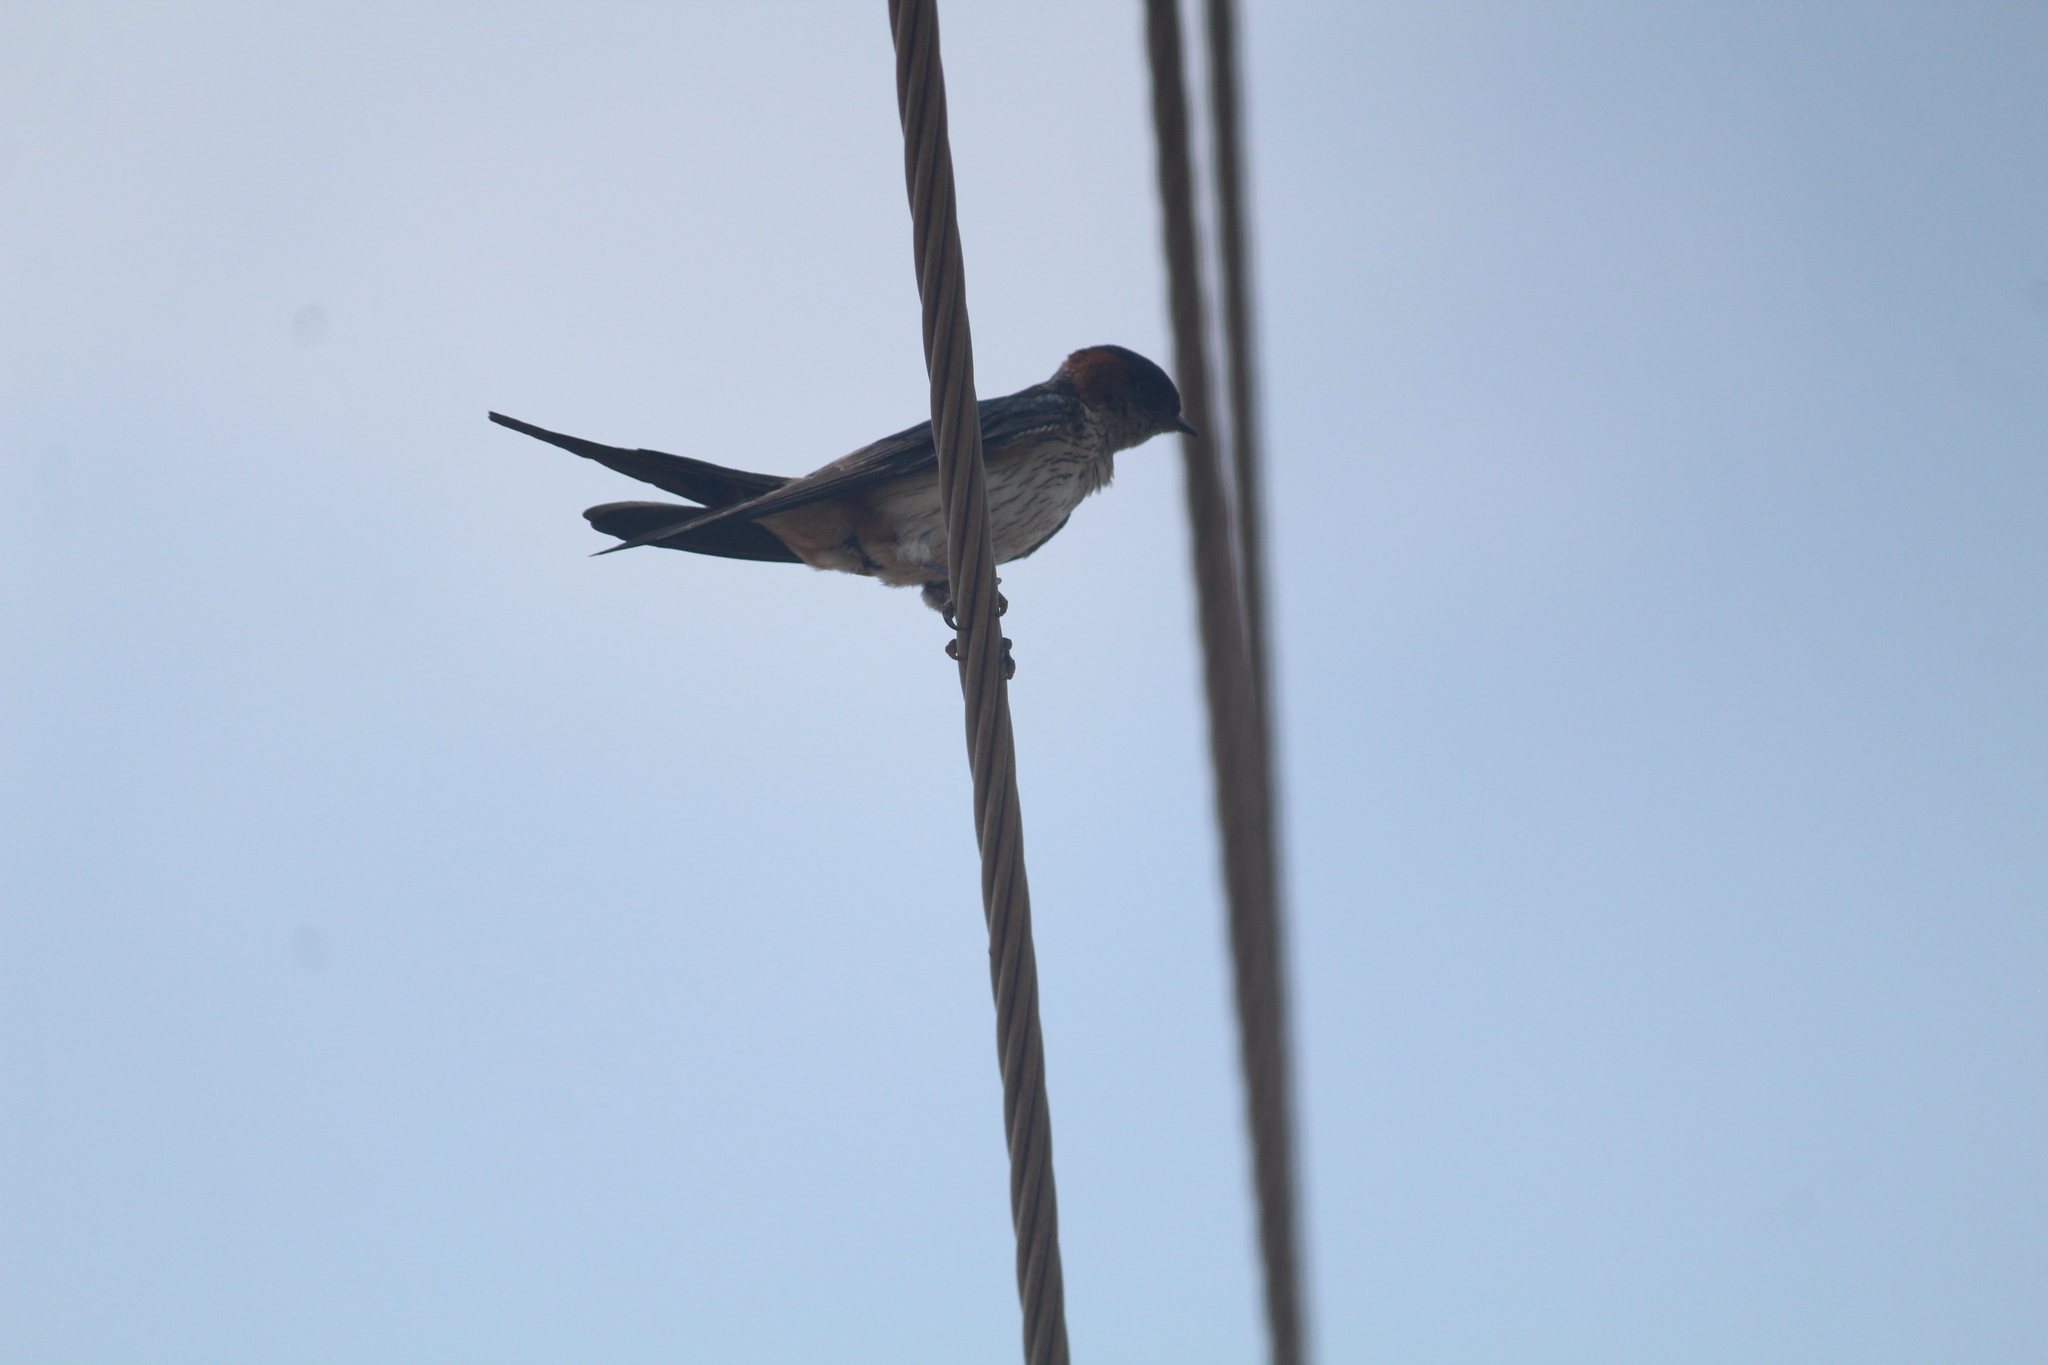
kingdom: Animalia
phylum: Chordata
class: Aves
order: Passeriformes
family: Hirundinidae
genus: Cecropis
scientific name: Cecropis daurica
